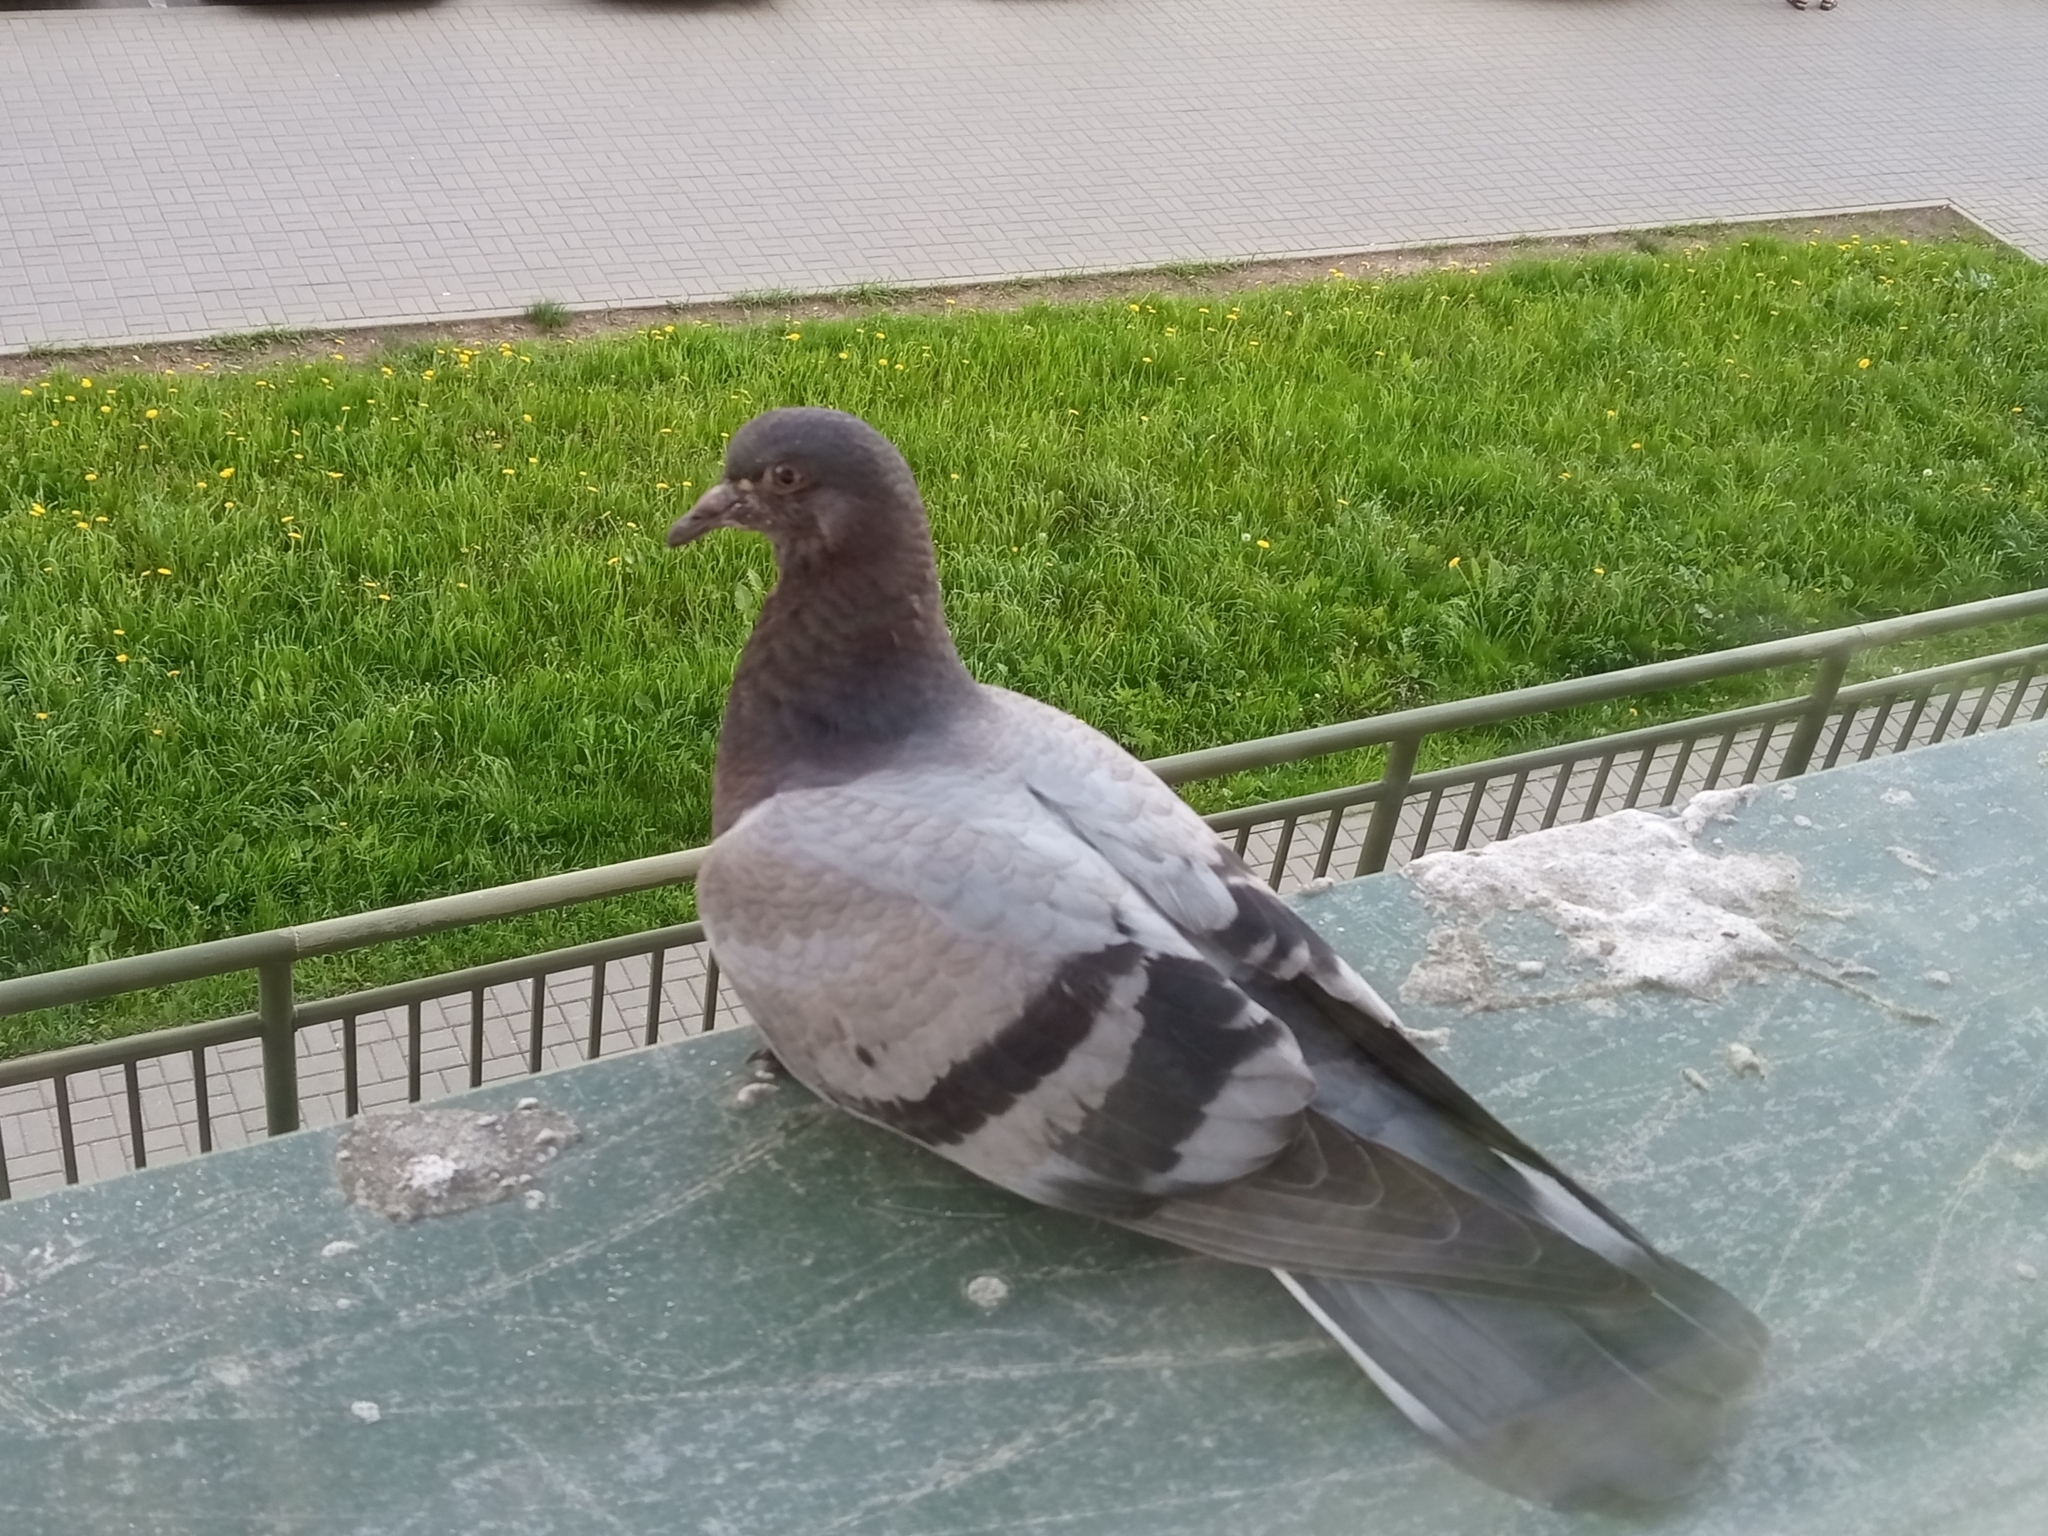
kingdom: Animalia
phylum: Chordata
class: Aves
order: Columbiformes
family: Columbidae
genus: Columba
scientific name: Columba livia
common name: Rock pigeon
